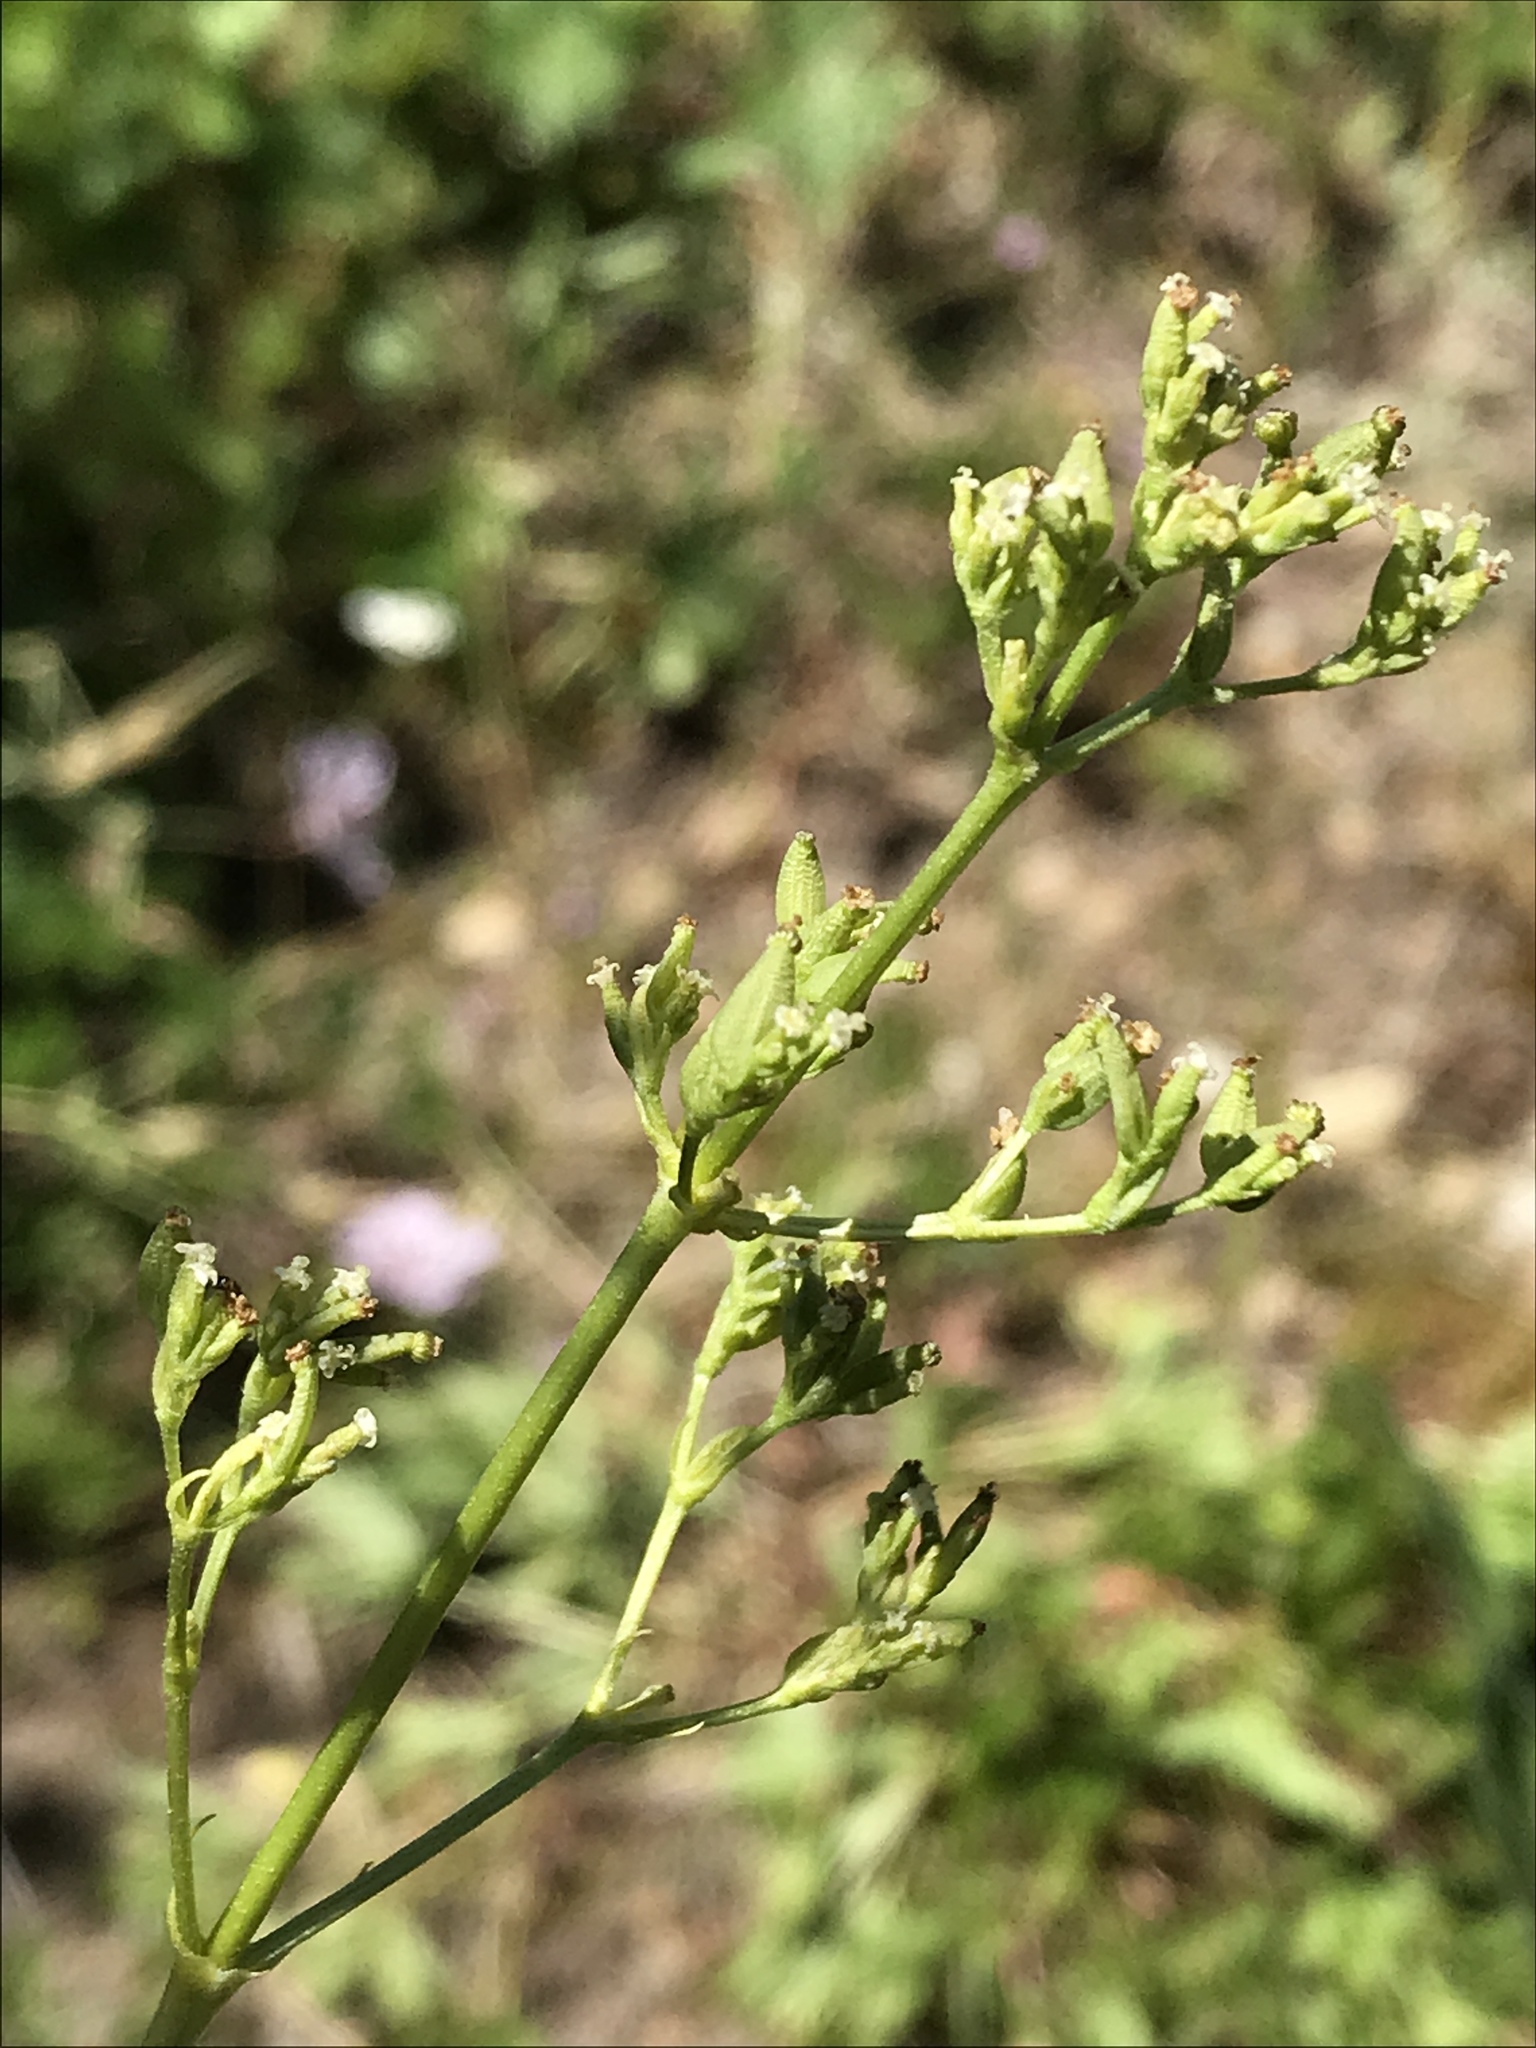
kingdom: Plantae
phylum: Tracheophyta
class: Magnoliopsida
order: Dipsacales
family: Caprifoliaceae
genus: Valeriana
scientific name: Valeriana edulis
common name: Taproot valerian
